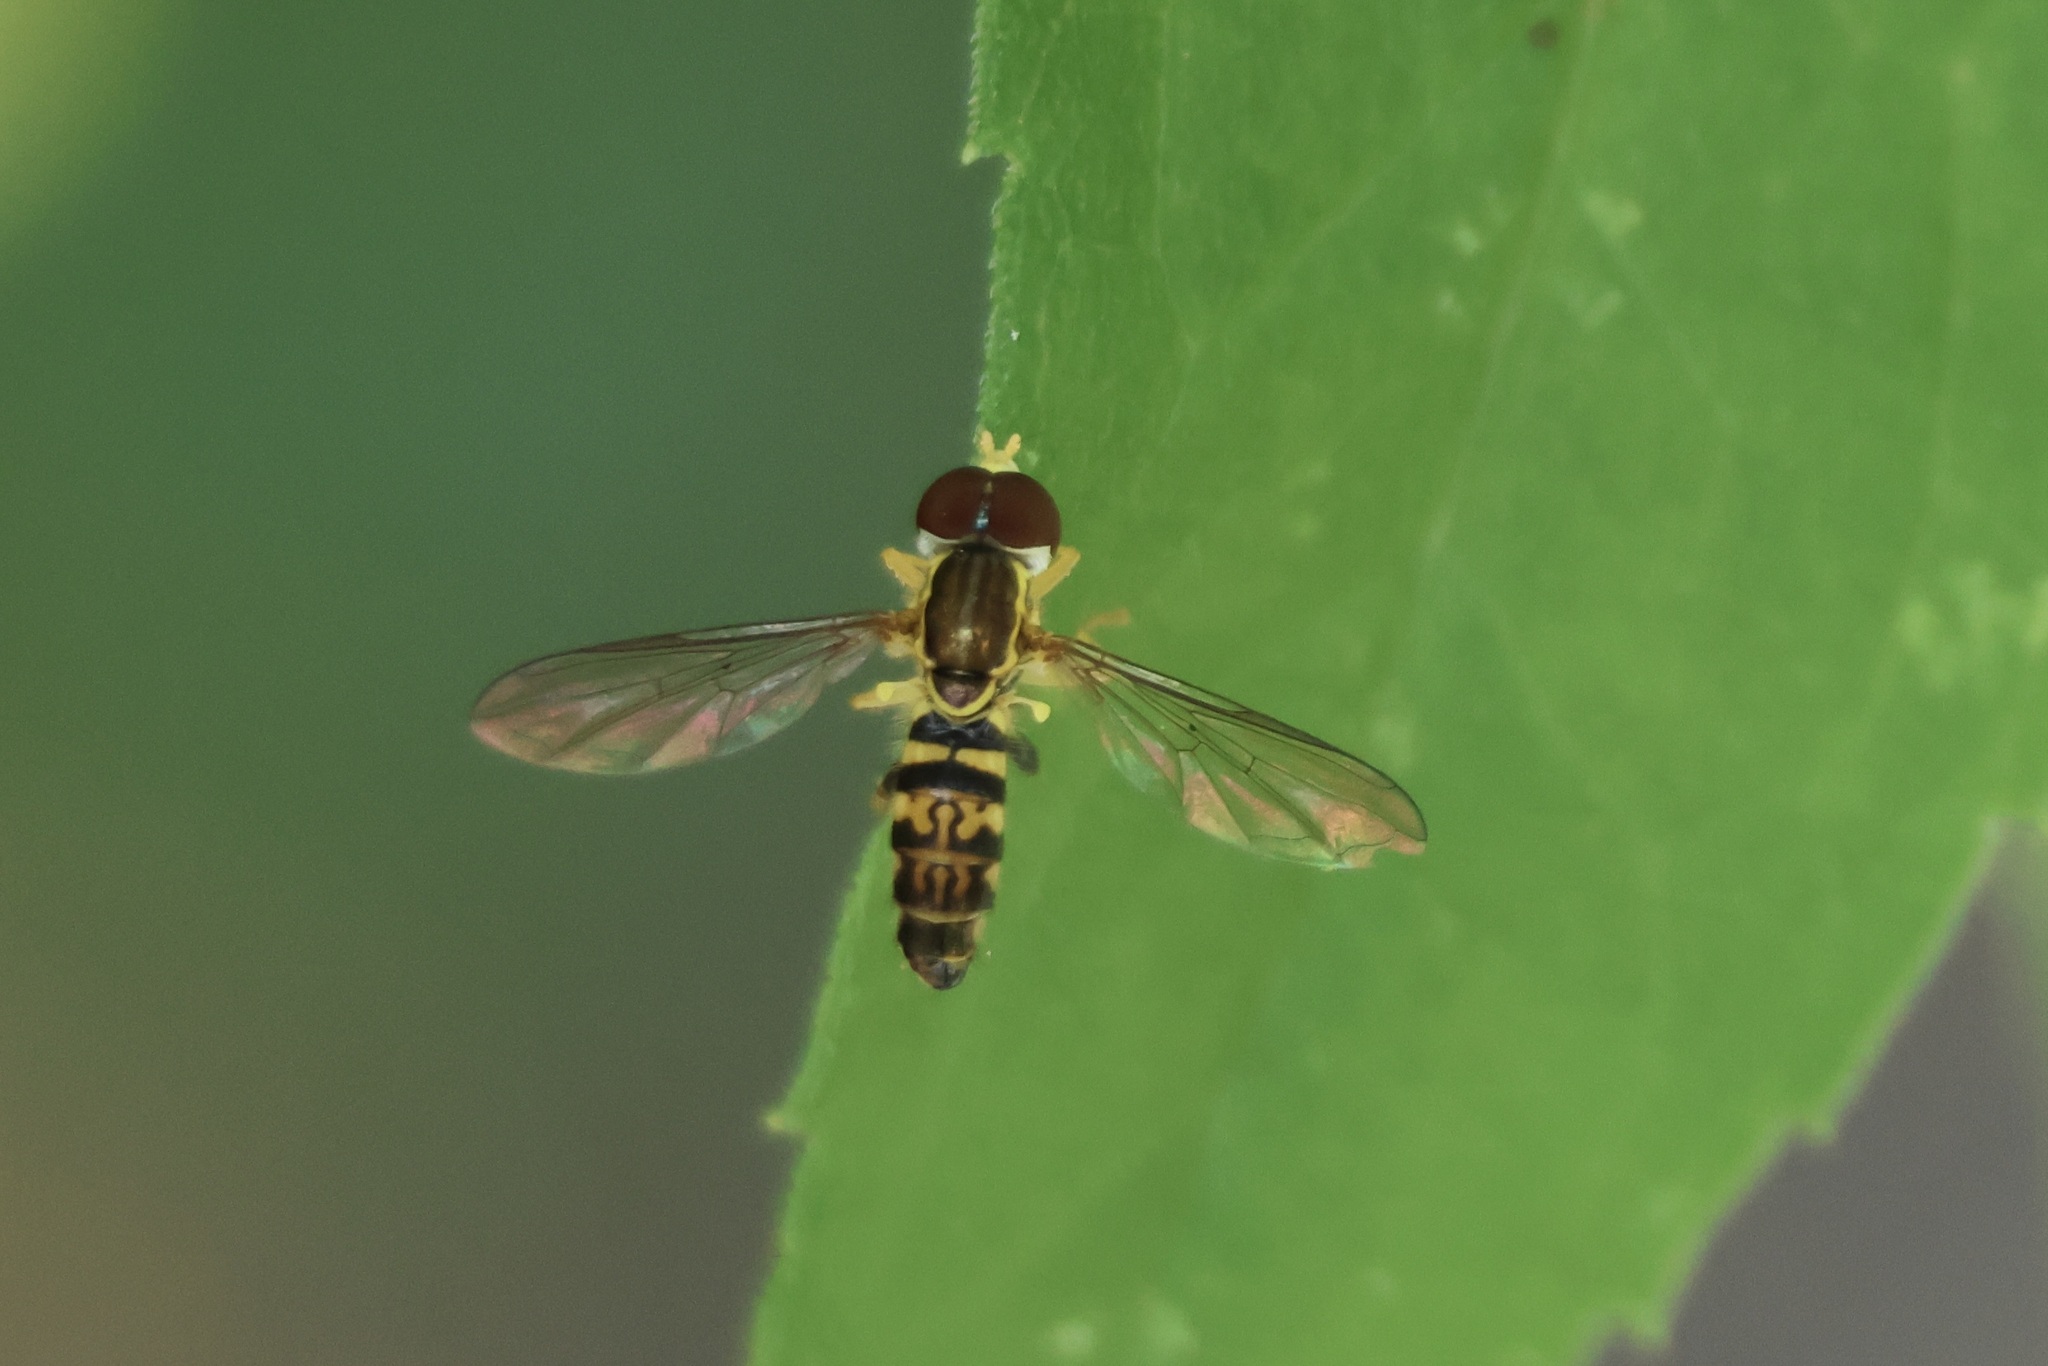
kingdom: Animalia
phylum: Arthropoda
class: Insecta
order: Diptera
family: Syrphidae
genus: Toxomerus
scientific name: Toxomerus geminatus
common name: Eastern calligrapher
